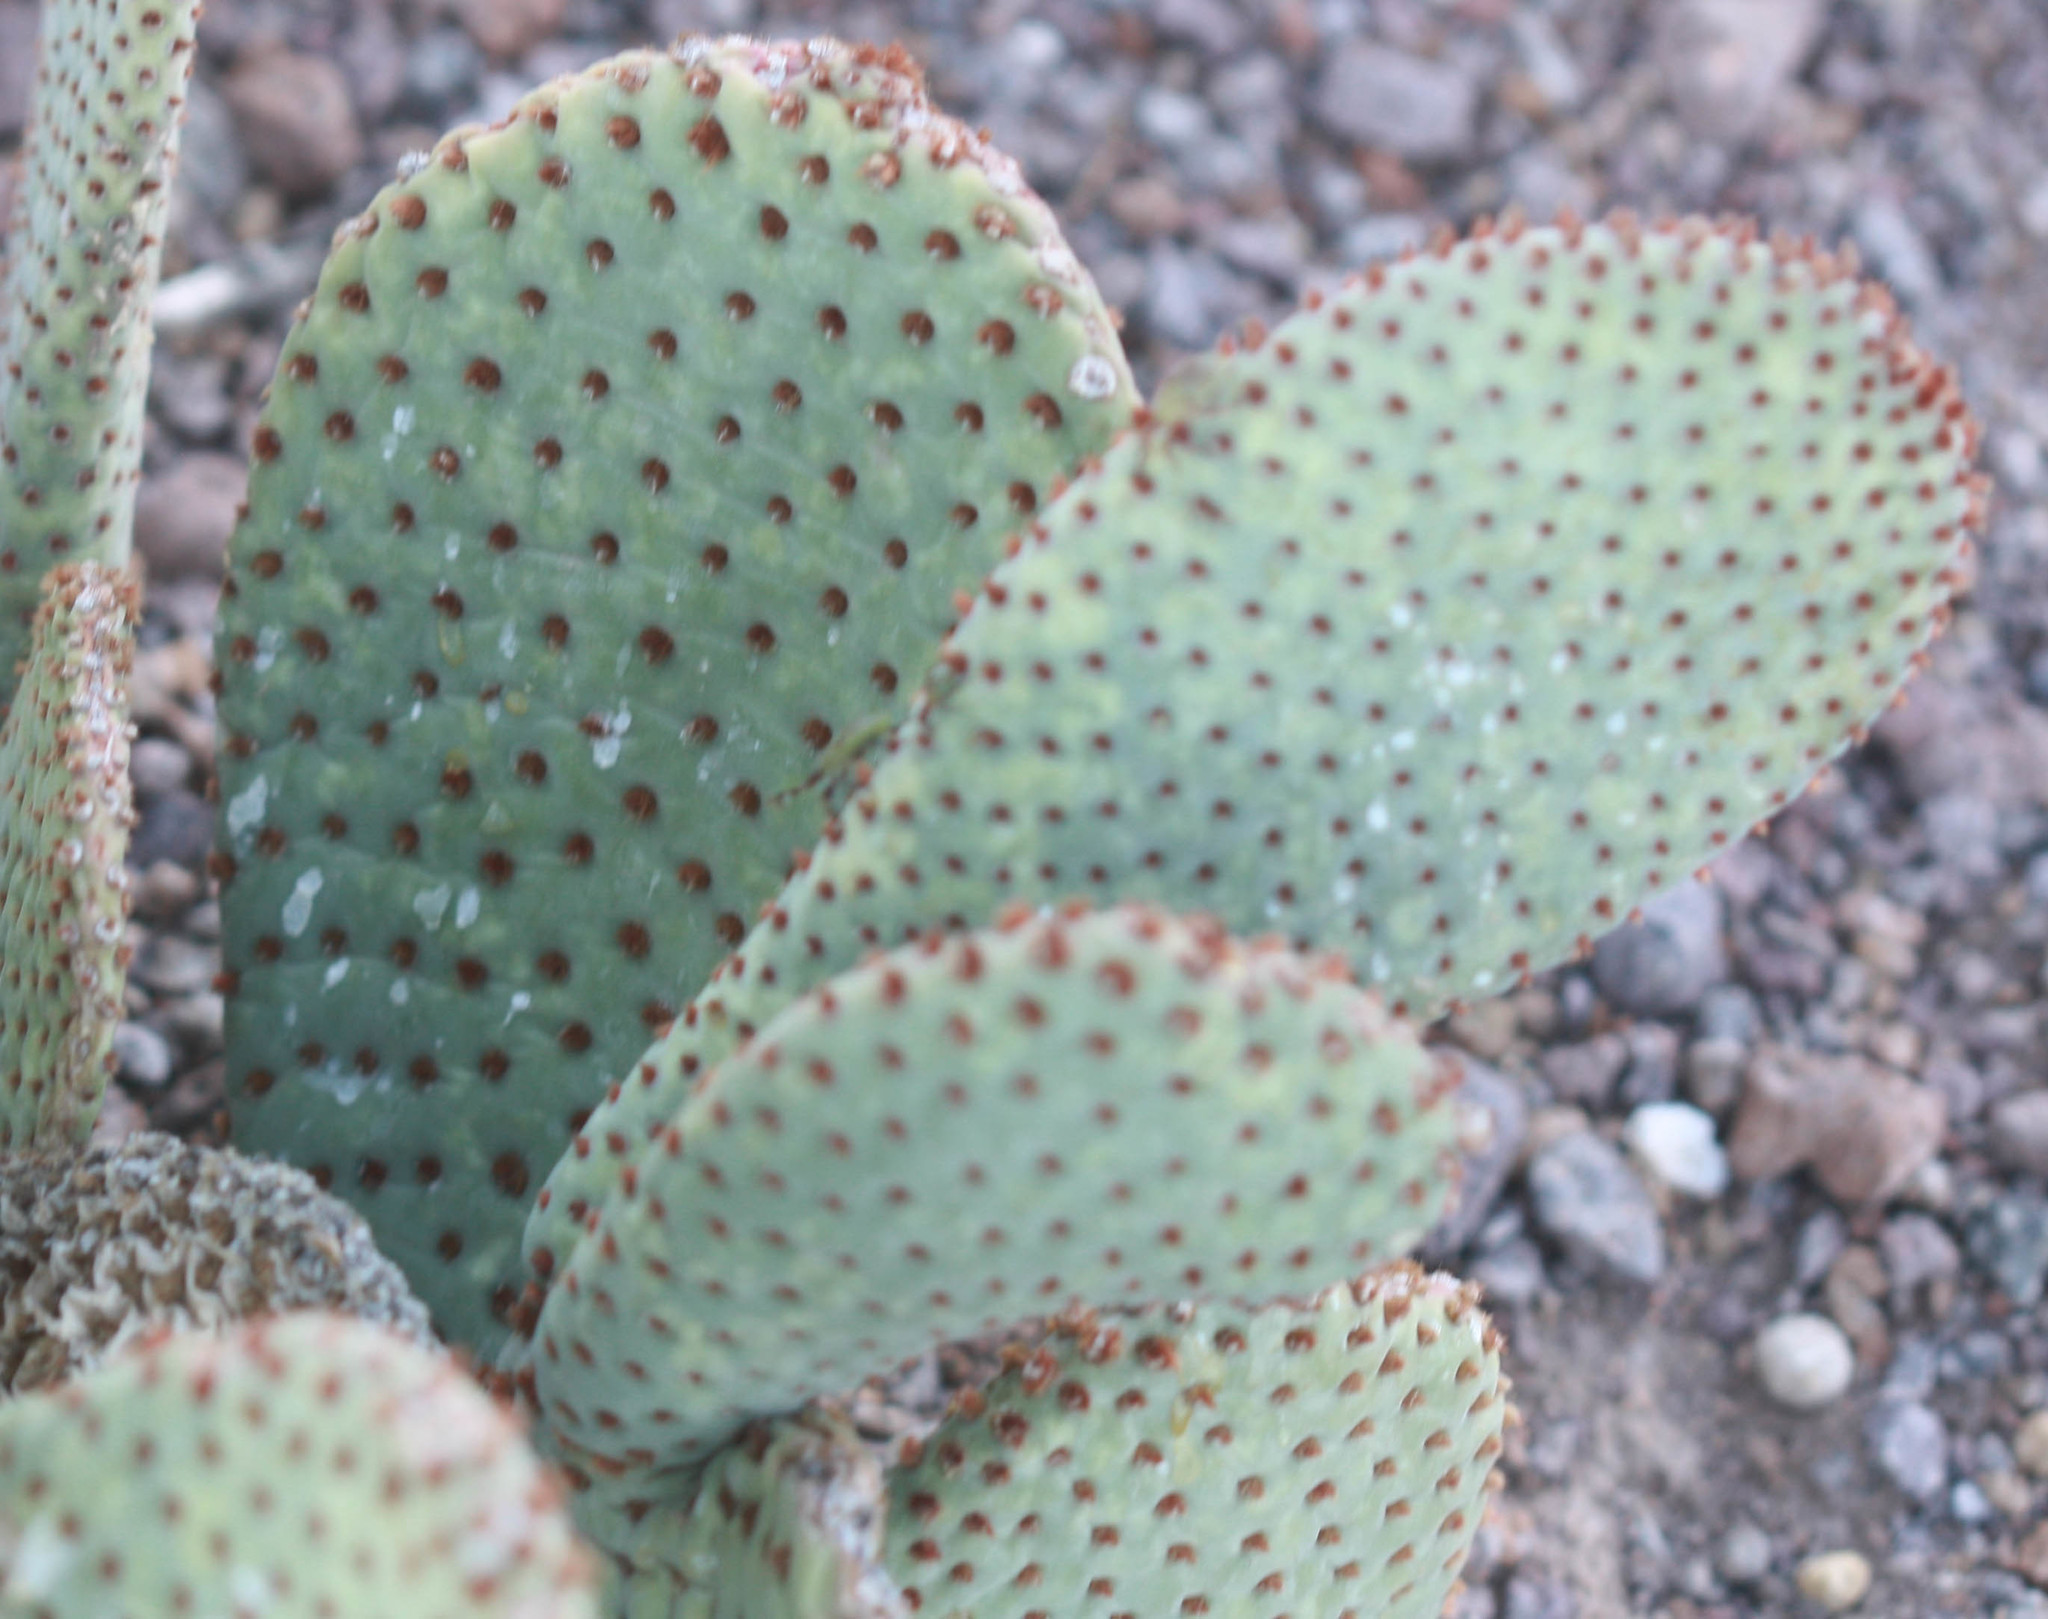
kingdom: Plantae
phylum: Tracheophyta
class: Magnoliopsida
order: Caryophyllales
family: Cactaceae
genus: Opuntia
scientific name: Opuntia basilaris
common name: Beavertail prickly-pear
